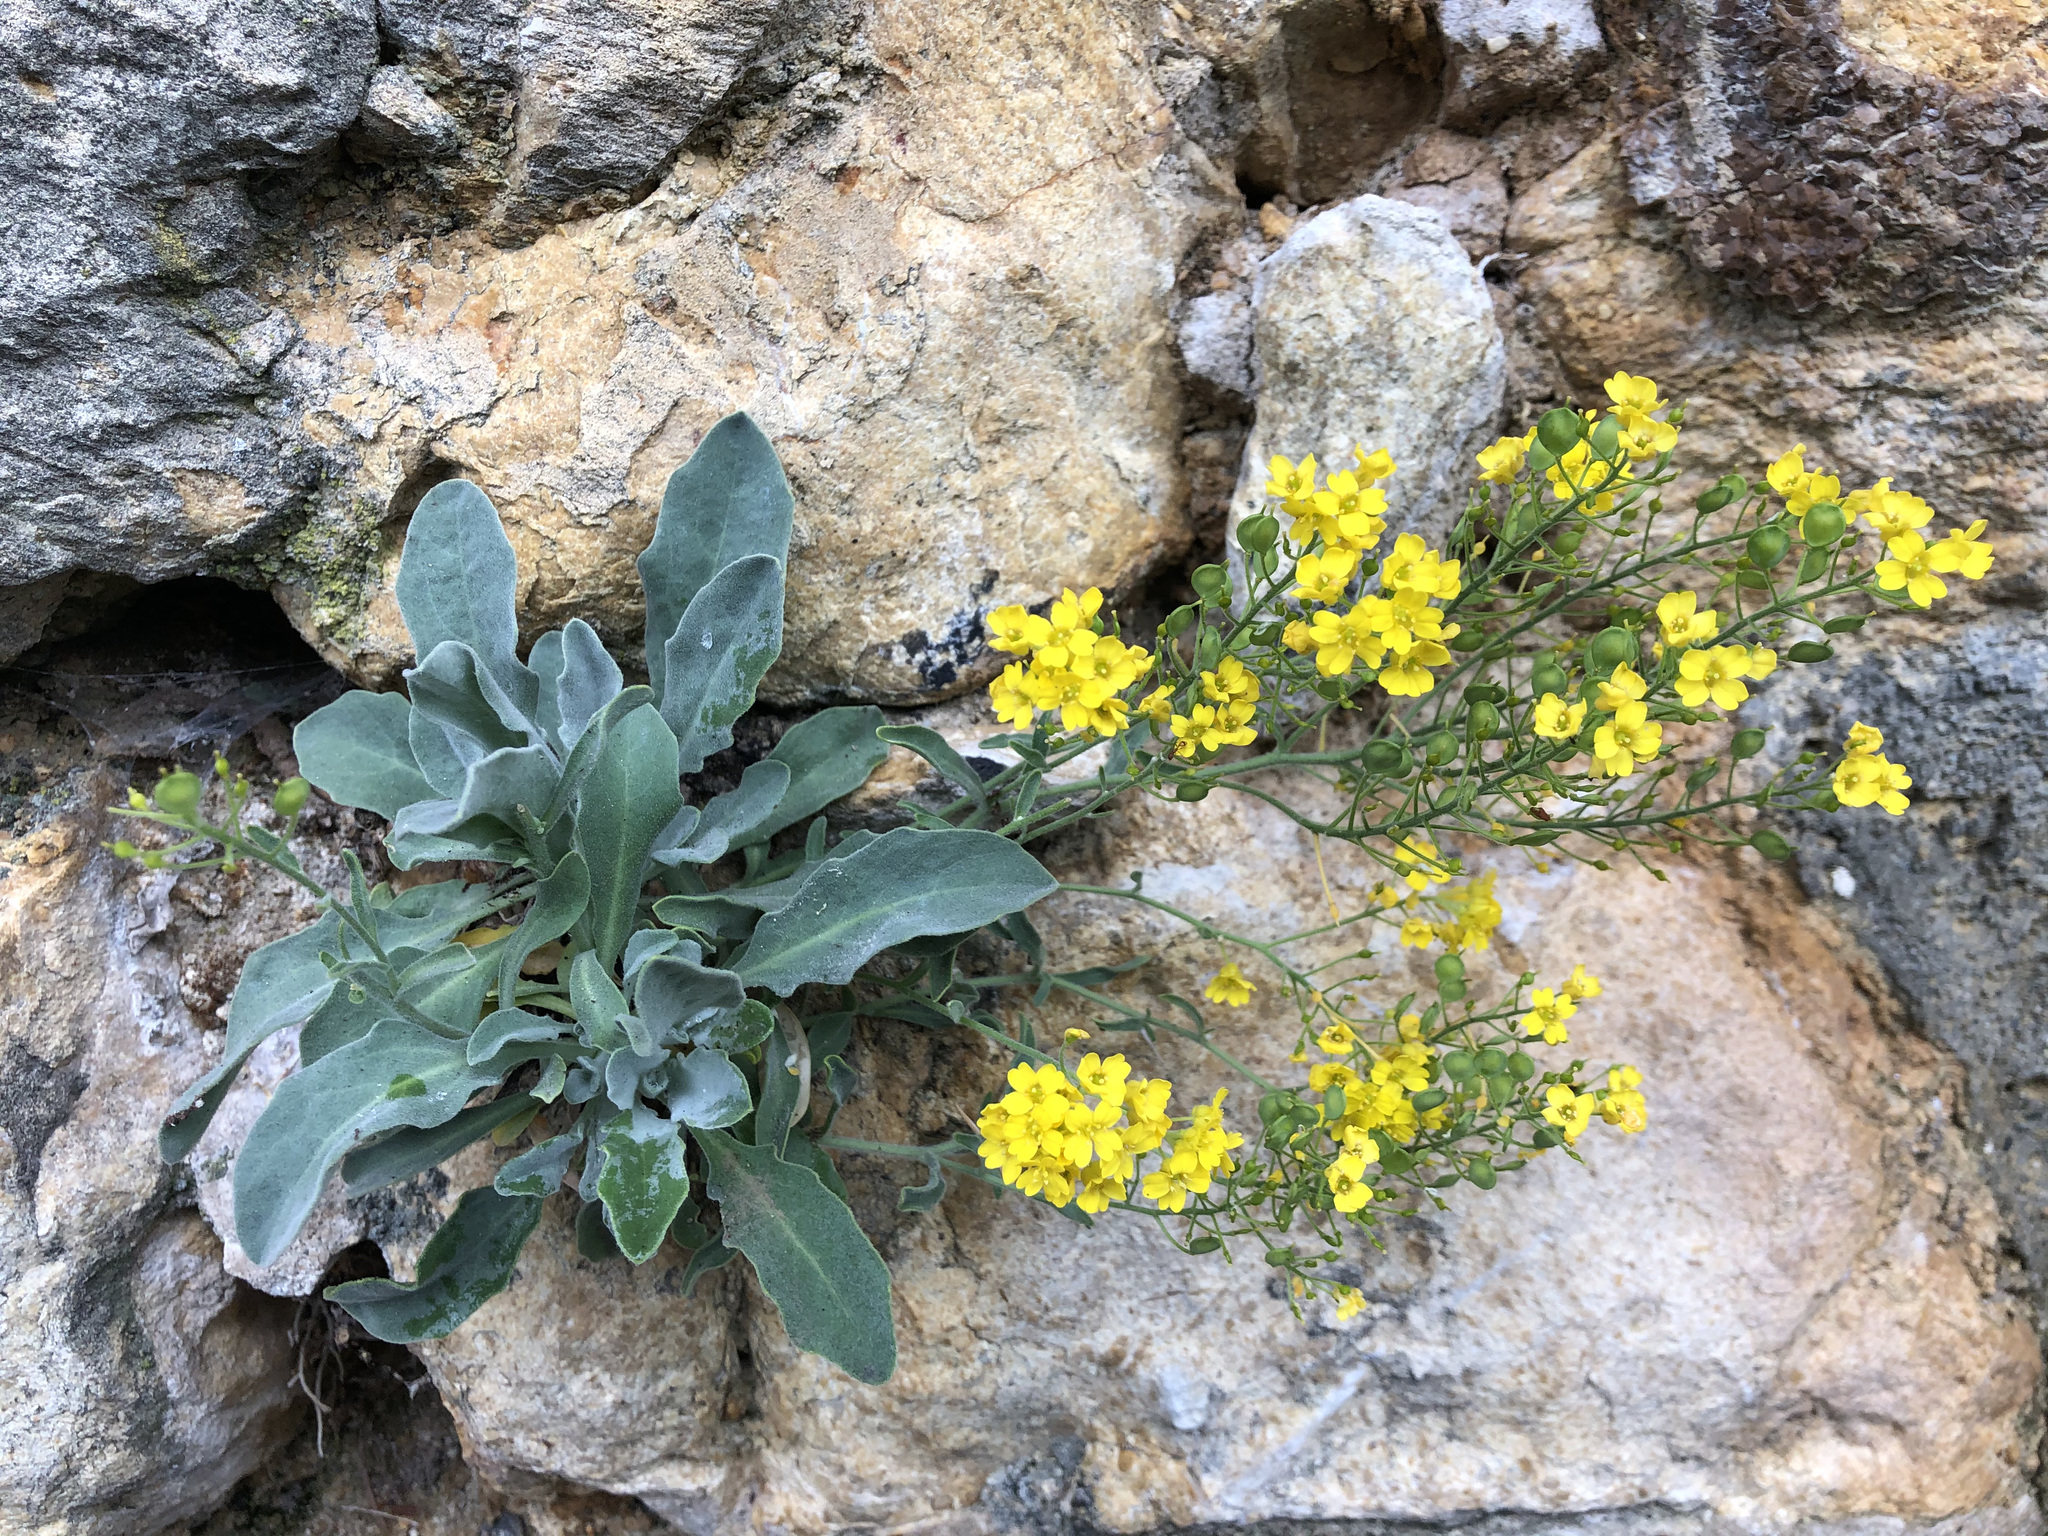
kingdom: Plantae
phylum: Tracheophyta
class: Magnoliopsida
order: Brassicales
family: Brassicaceae
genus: Aurinia
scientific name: Aurinia saxatilis
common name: Golden-tuft alyssum
